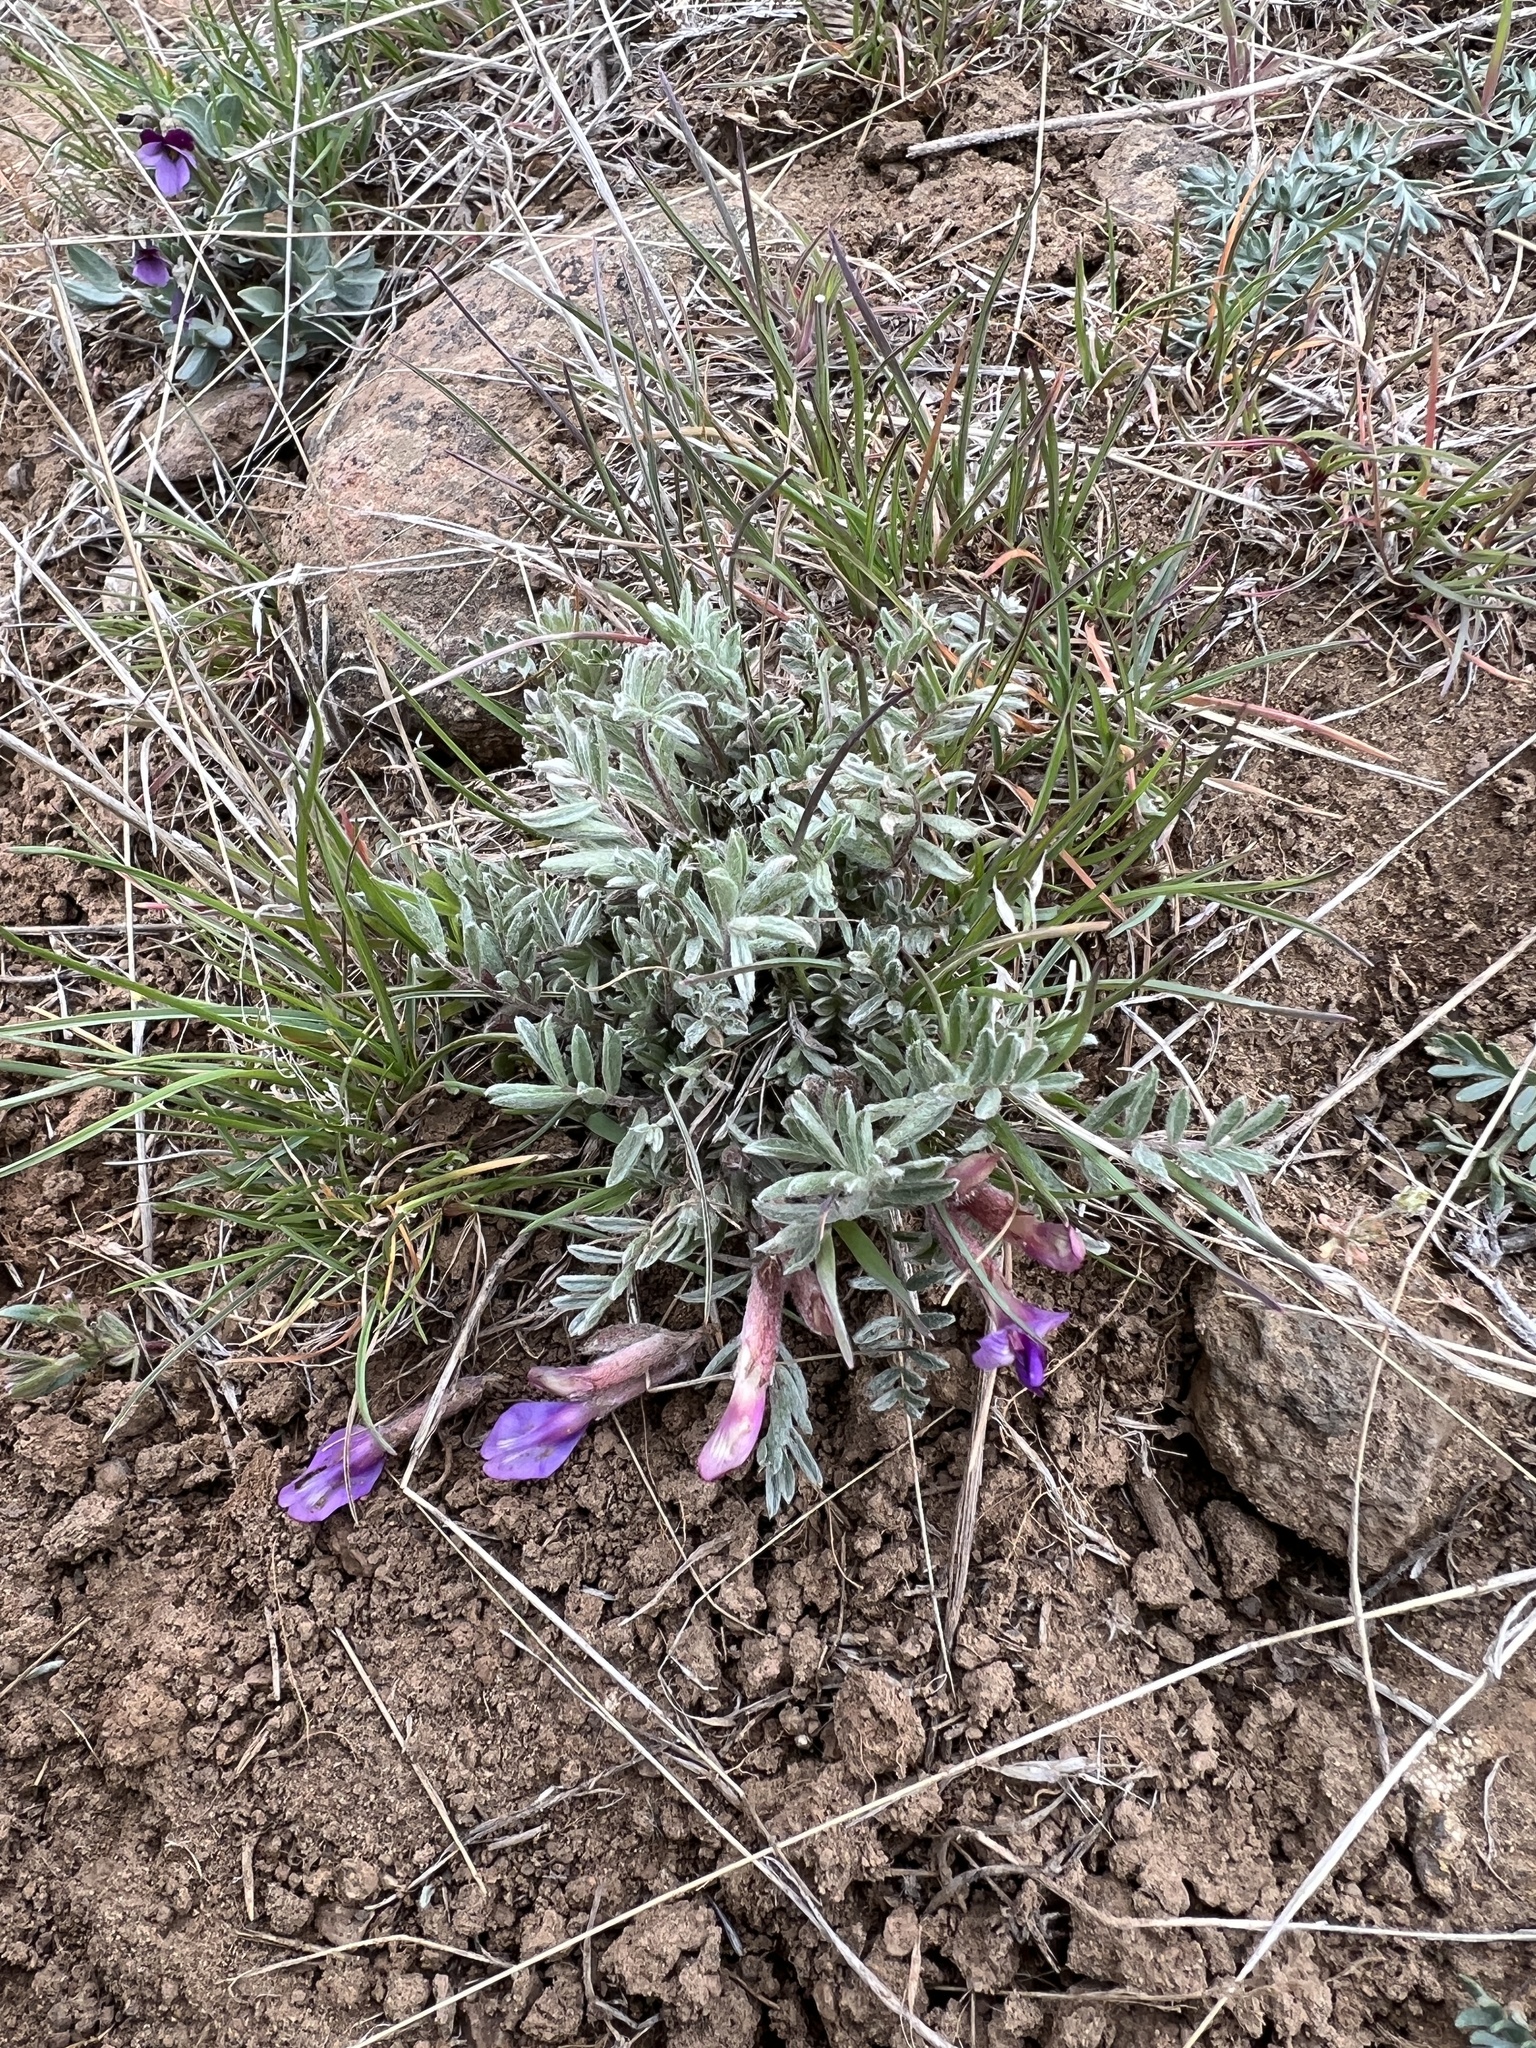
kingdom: Plantae
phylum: Tracheophyta
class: Magnoliopsida
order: Fabales
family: Fabaceae
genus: Astragalus
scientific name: Astragalus purshii
